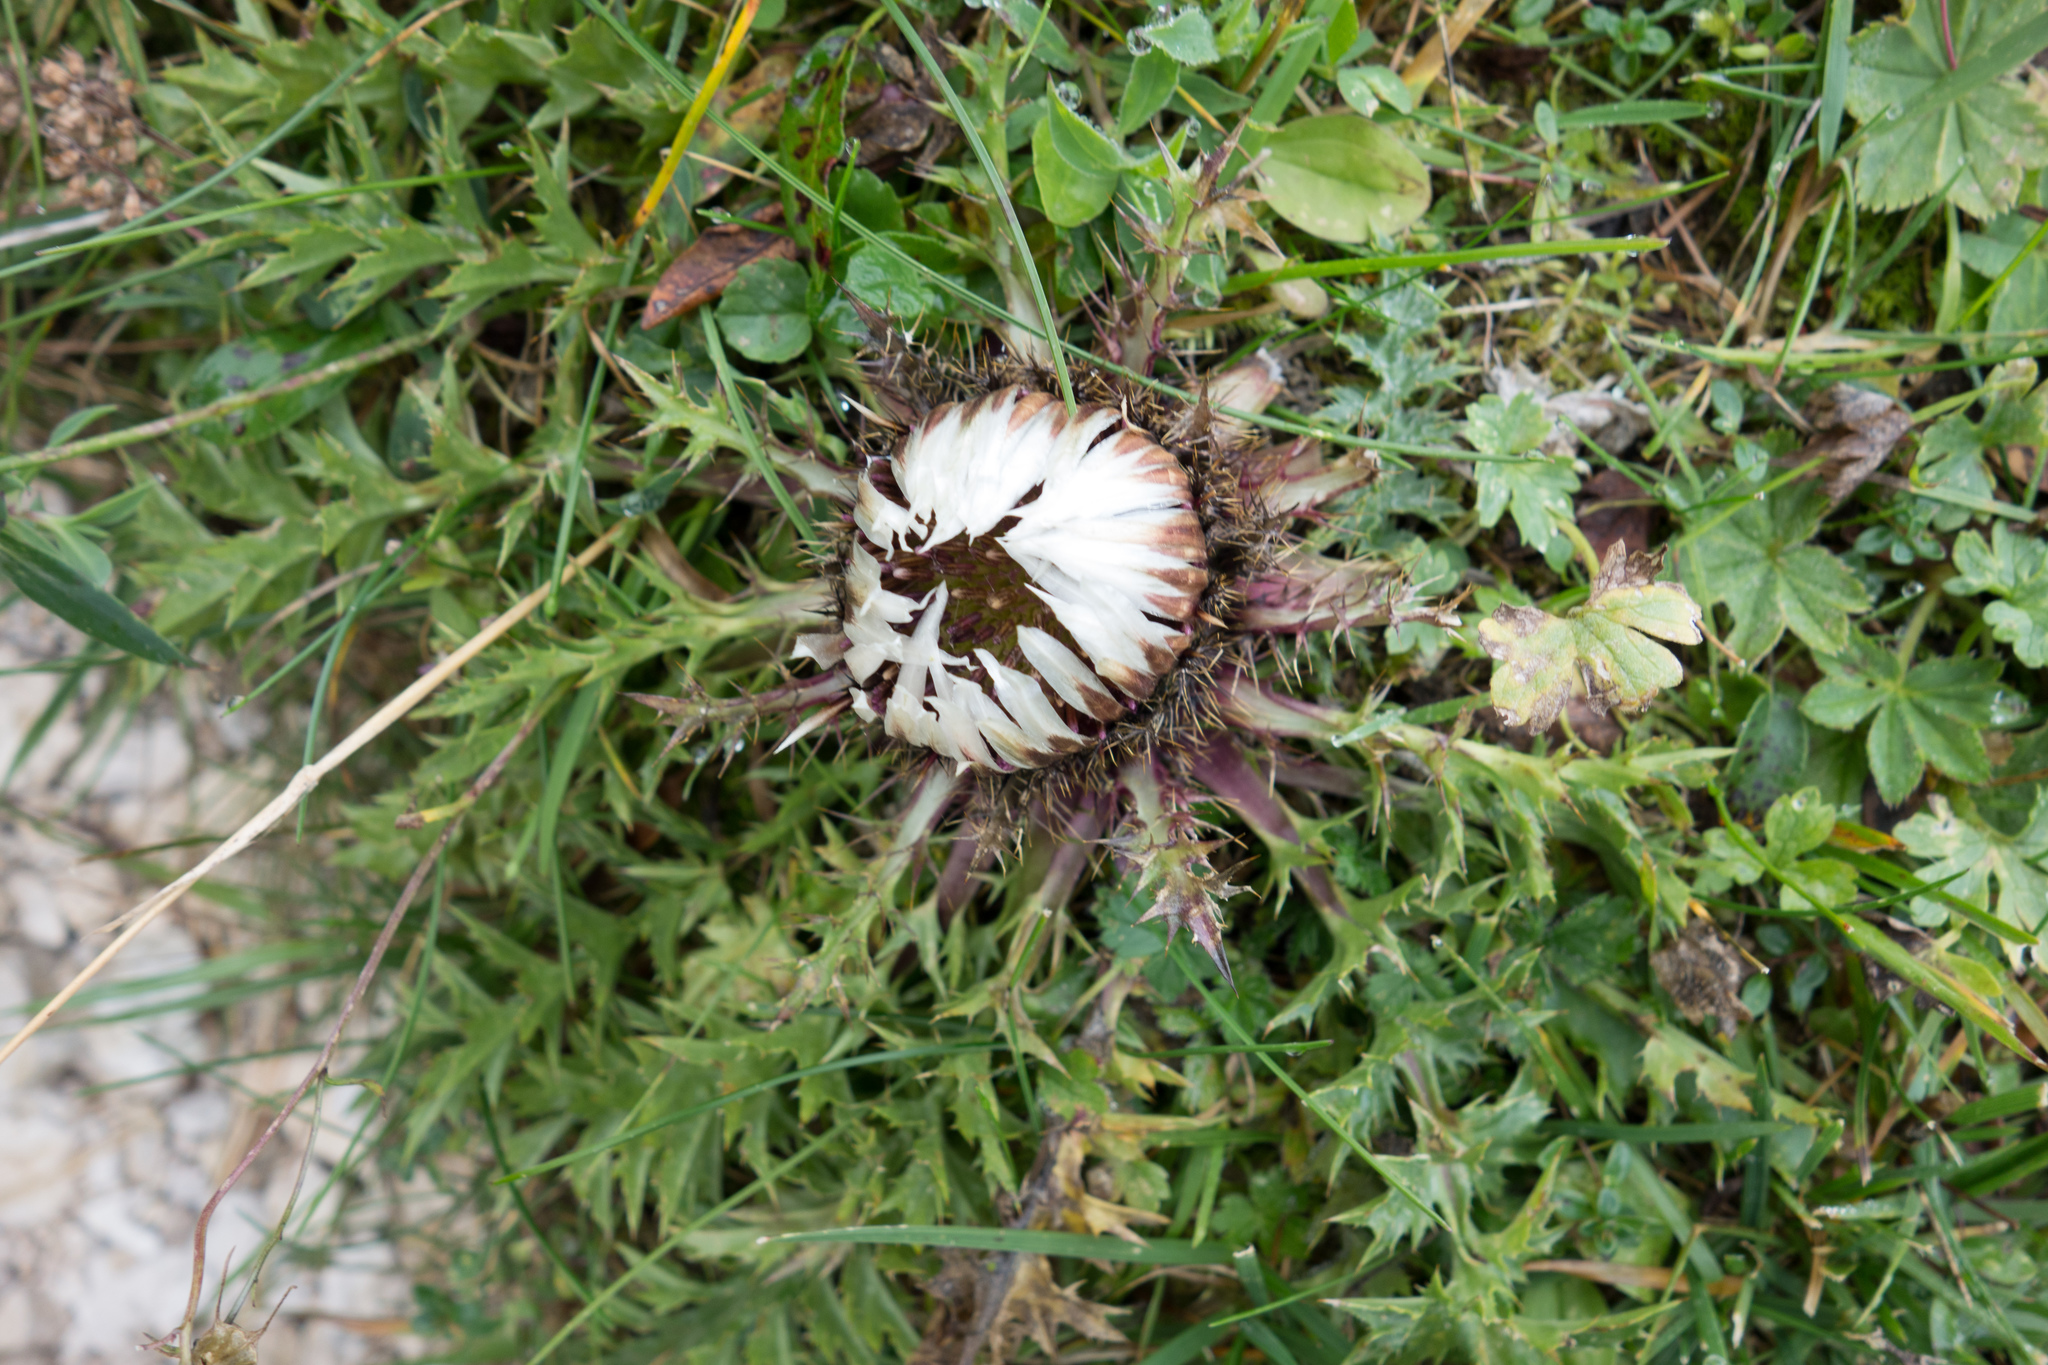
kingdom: Plantae
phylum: Tracheophyta
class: Magnoliopsida
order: Asterales
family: Asteraceae
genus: Carlina
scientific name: Carlina acaulis
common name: Stemless carline thistle
